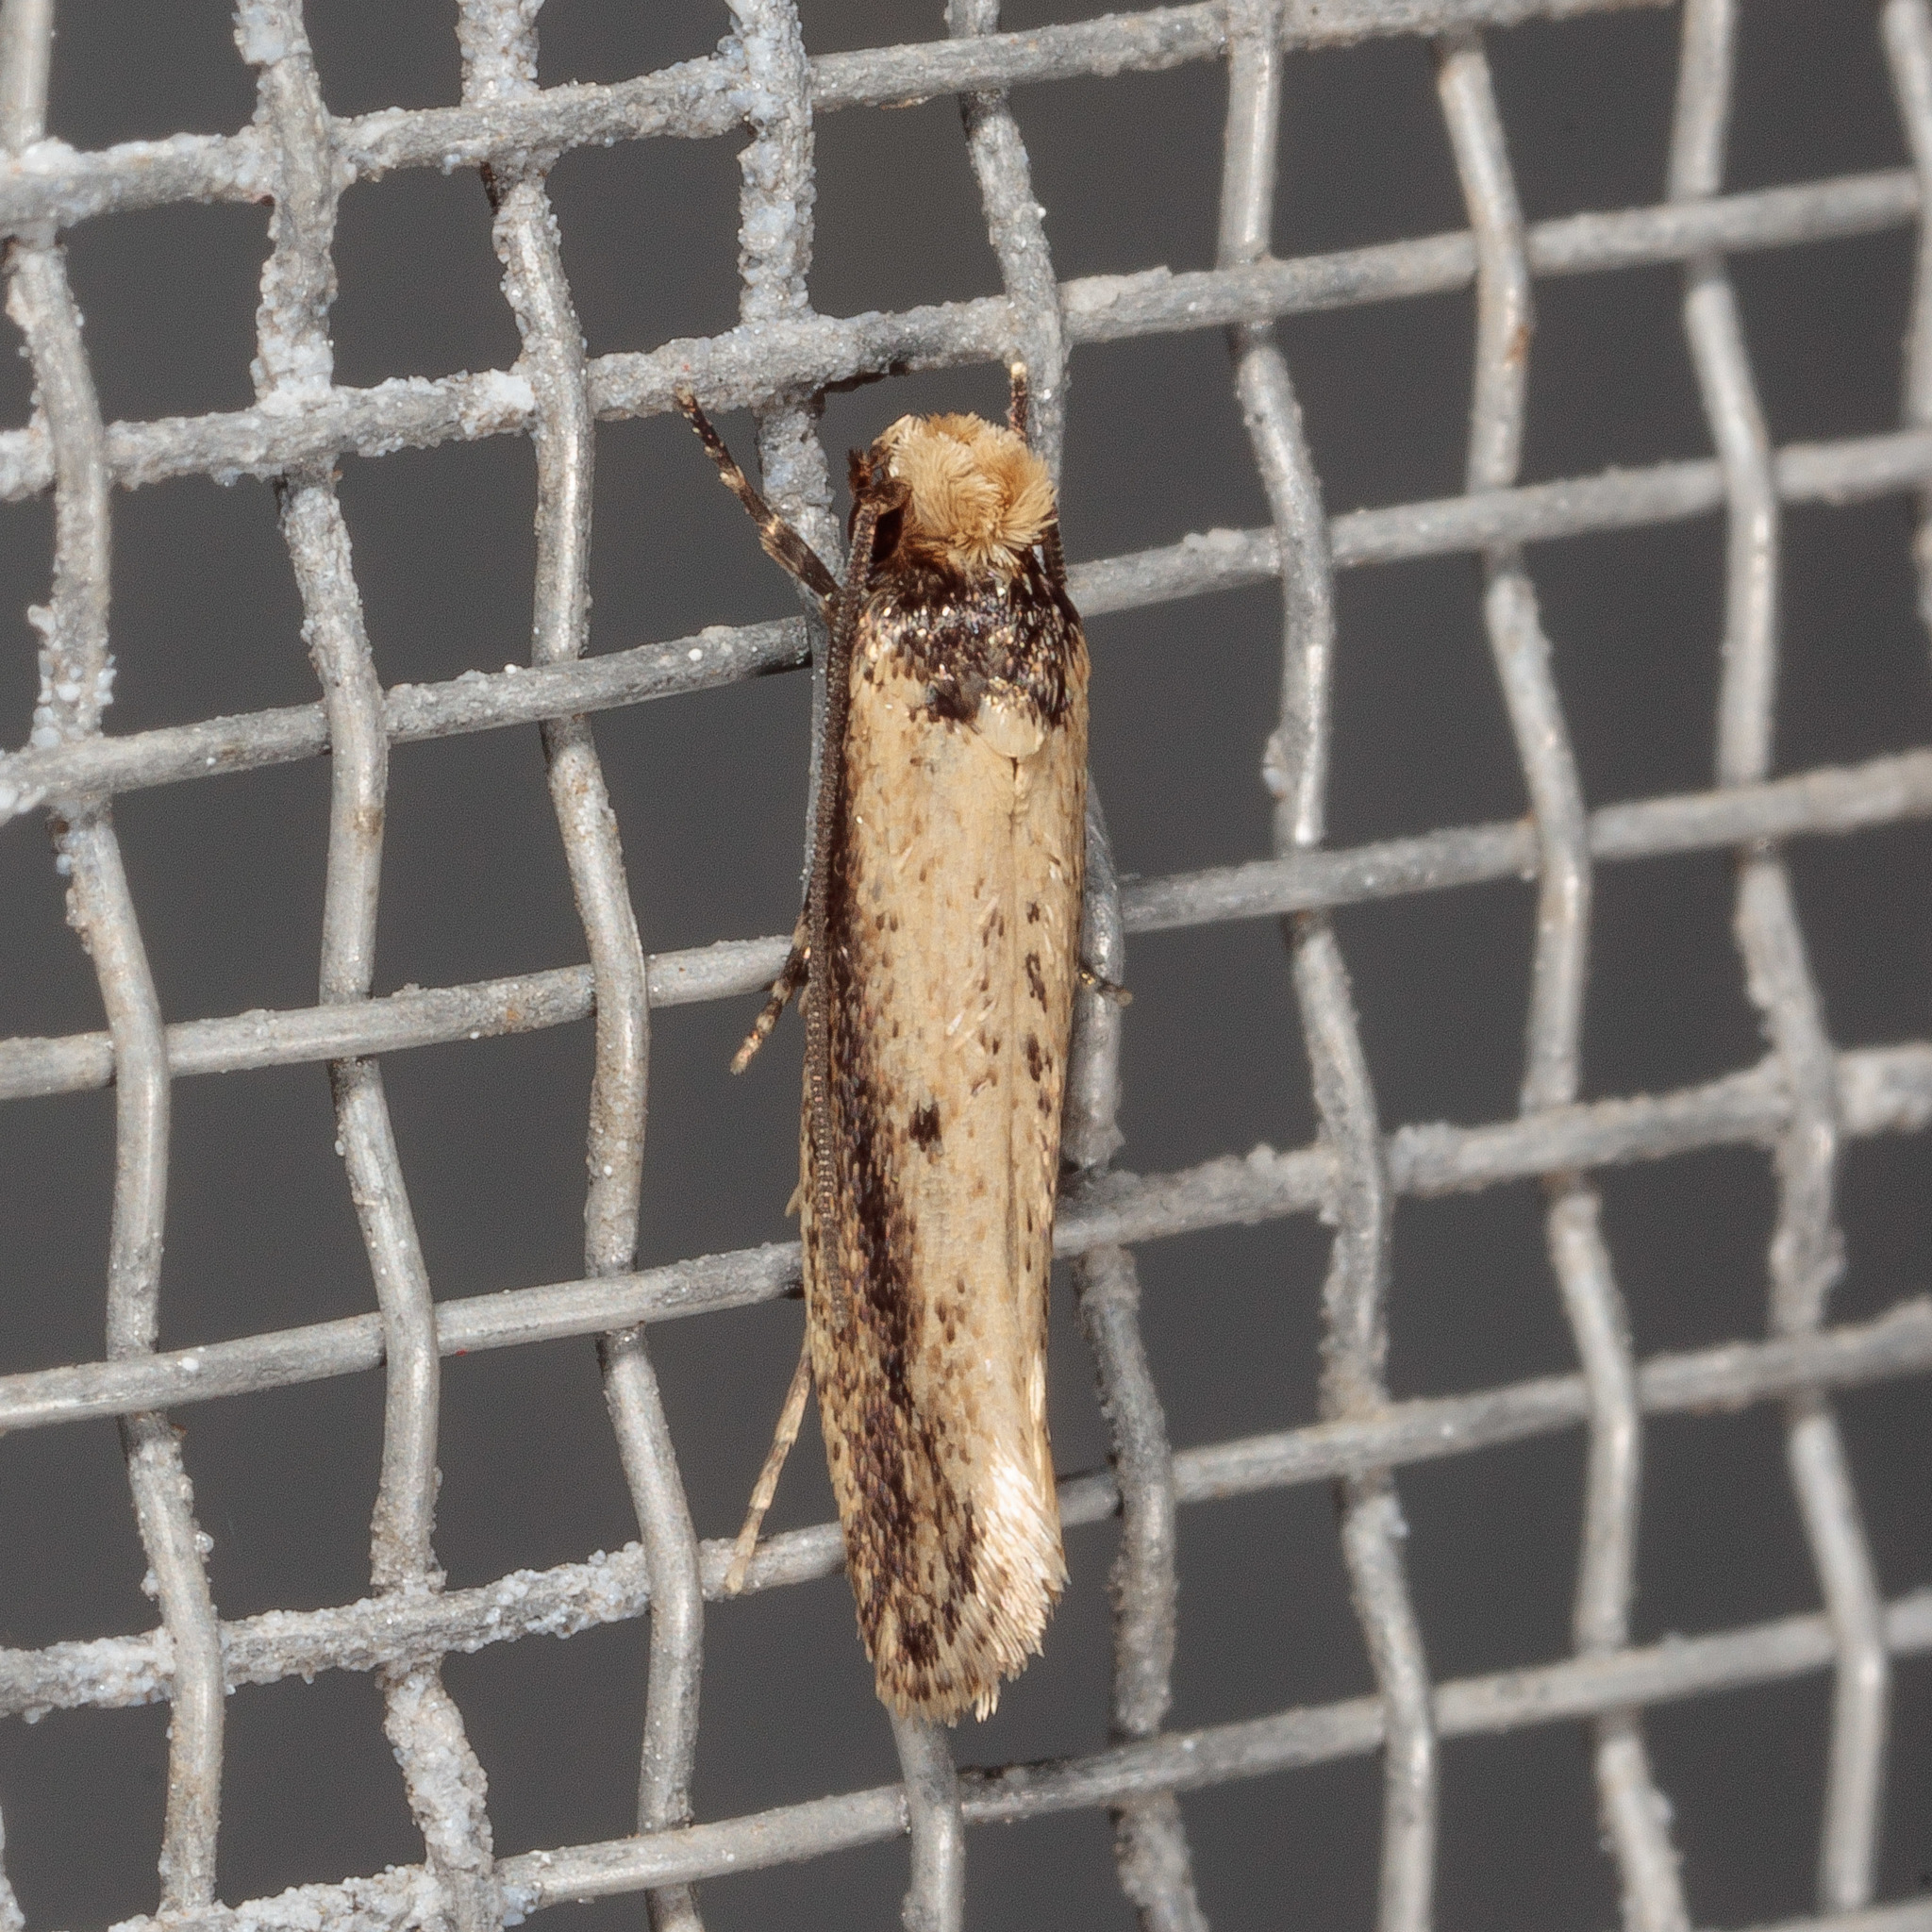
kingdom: Animalia
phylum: Arthropoda
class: Insecta
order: Lepidoptera
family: Tineidae
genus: Tinea
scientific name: Tinea apicimaculella
